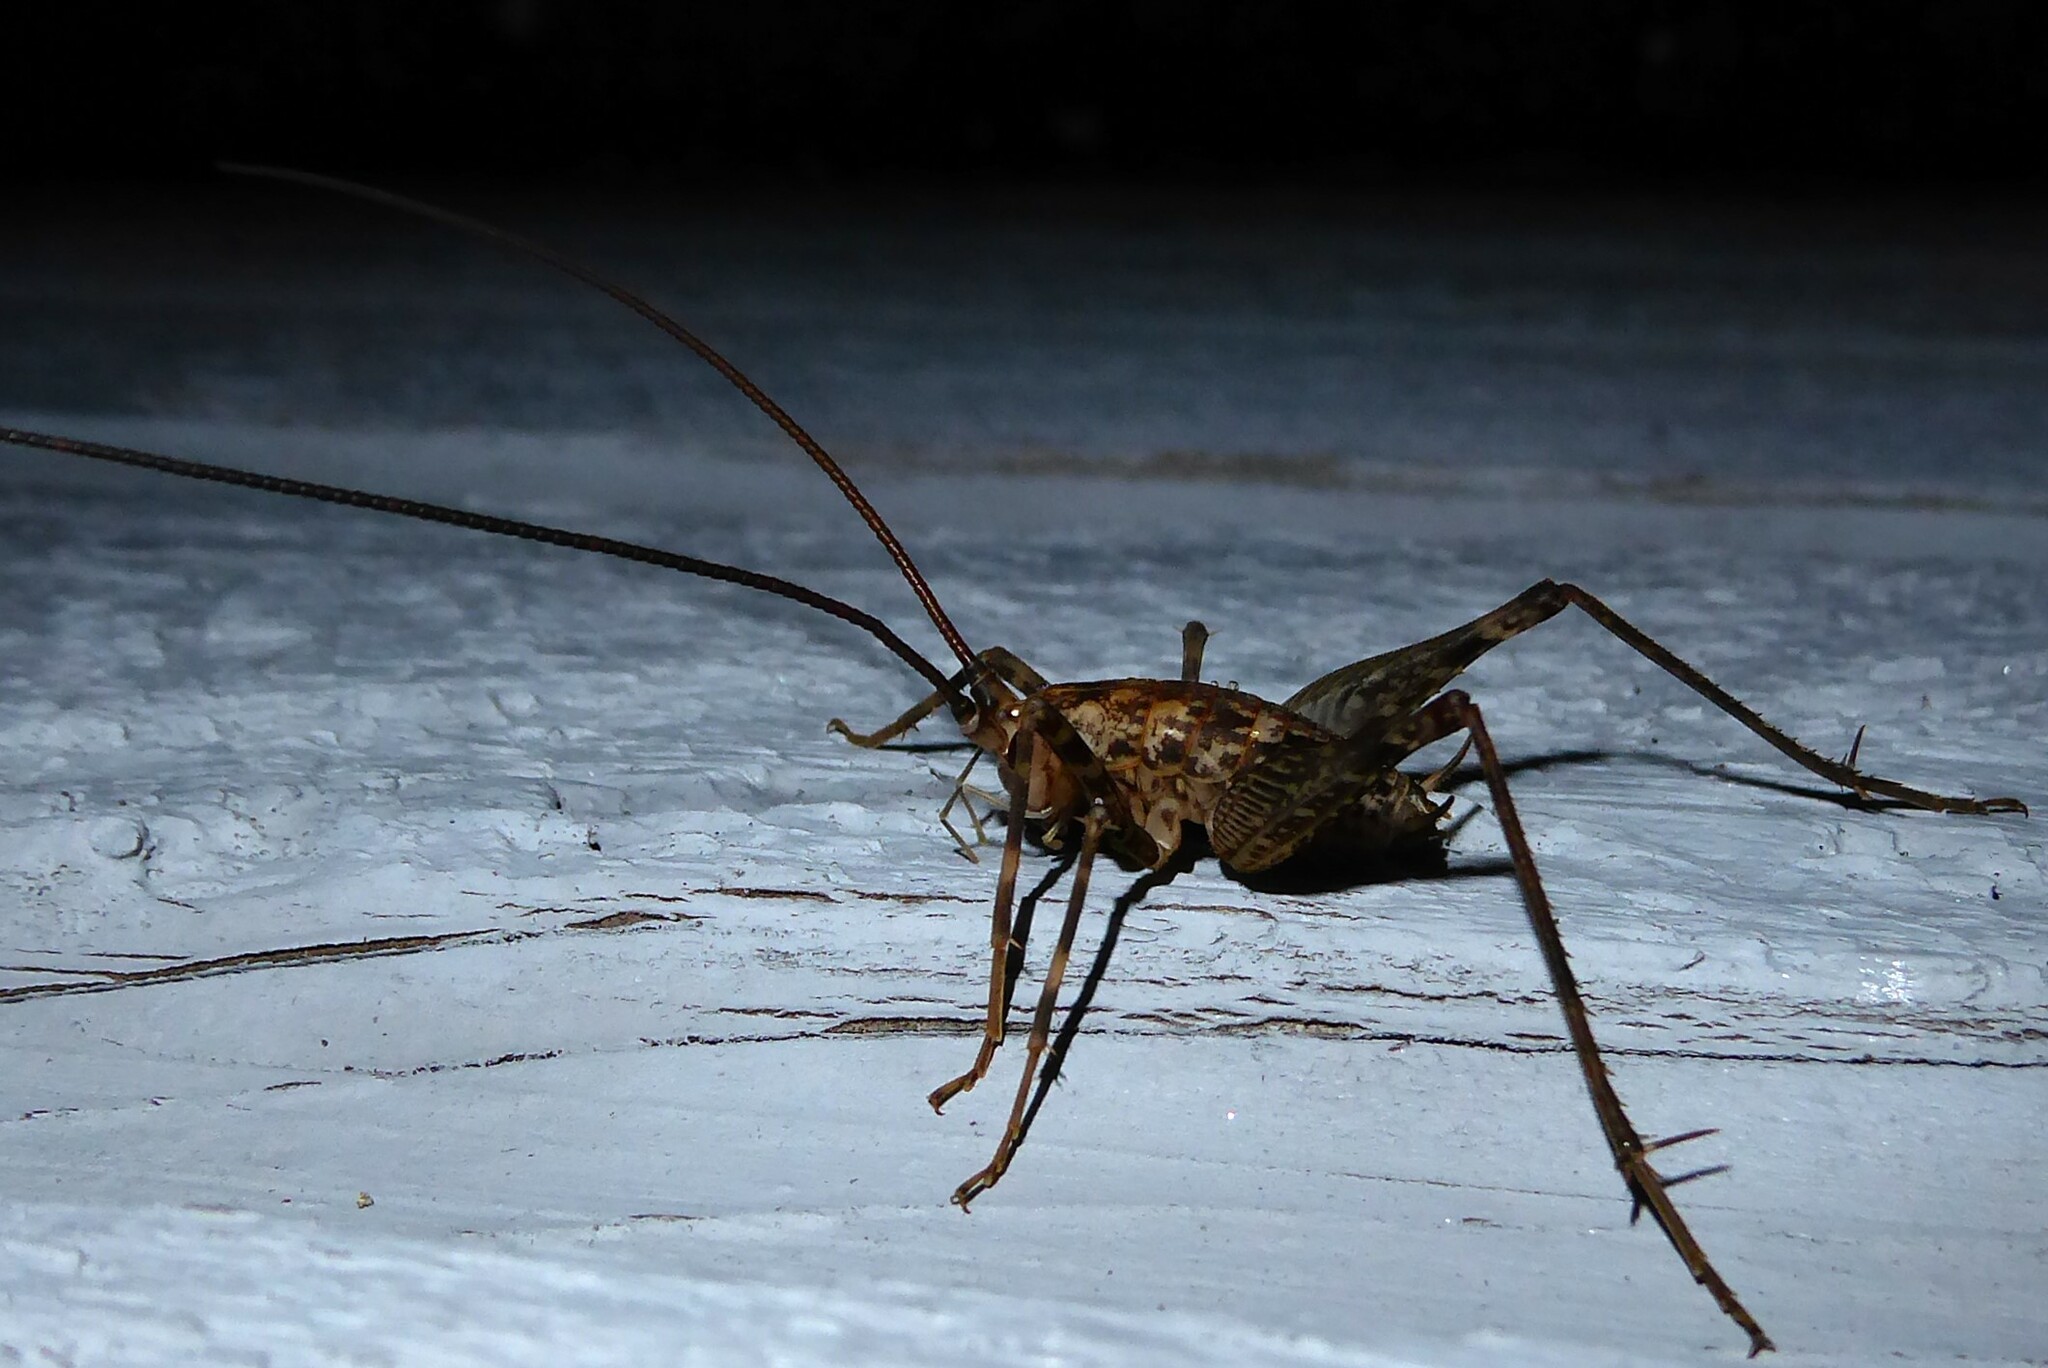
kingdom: Animalia
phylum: Arthropoda
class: Insecta
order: Orthoptera
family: Rhaphidophoridae
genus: Pleioplectron
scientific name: Pleioplectron simplex
